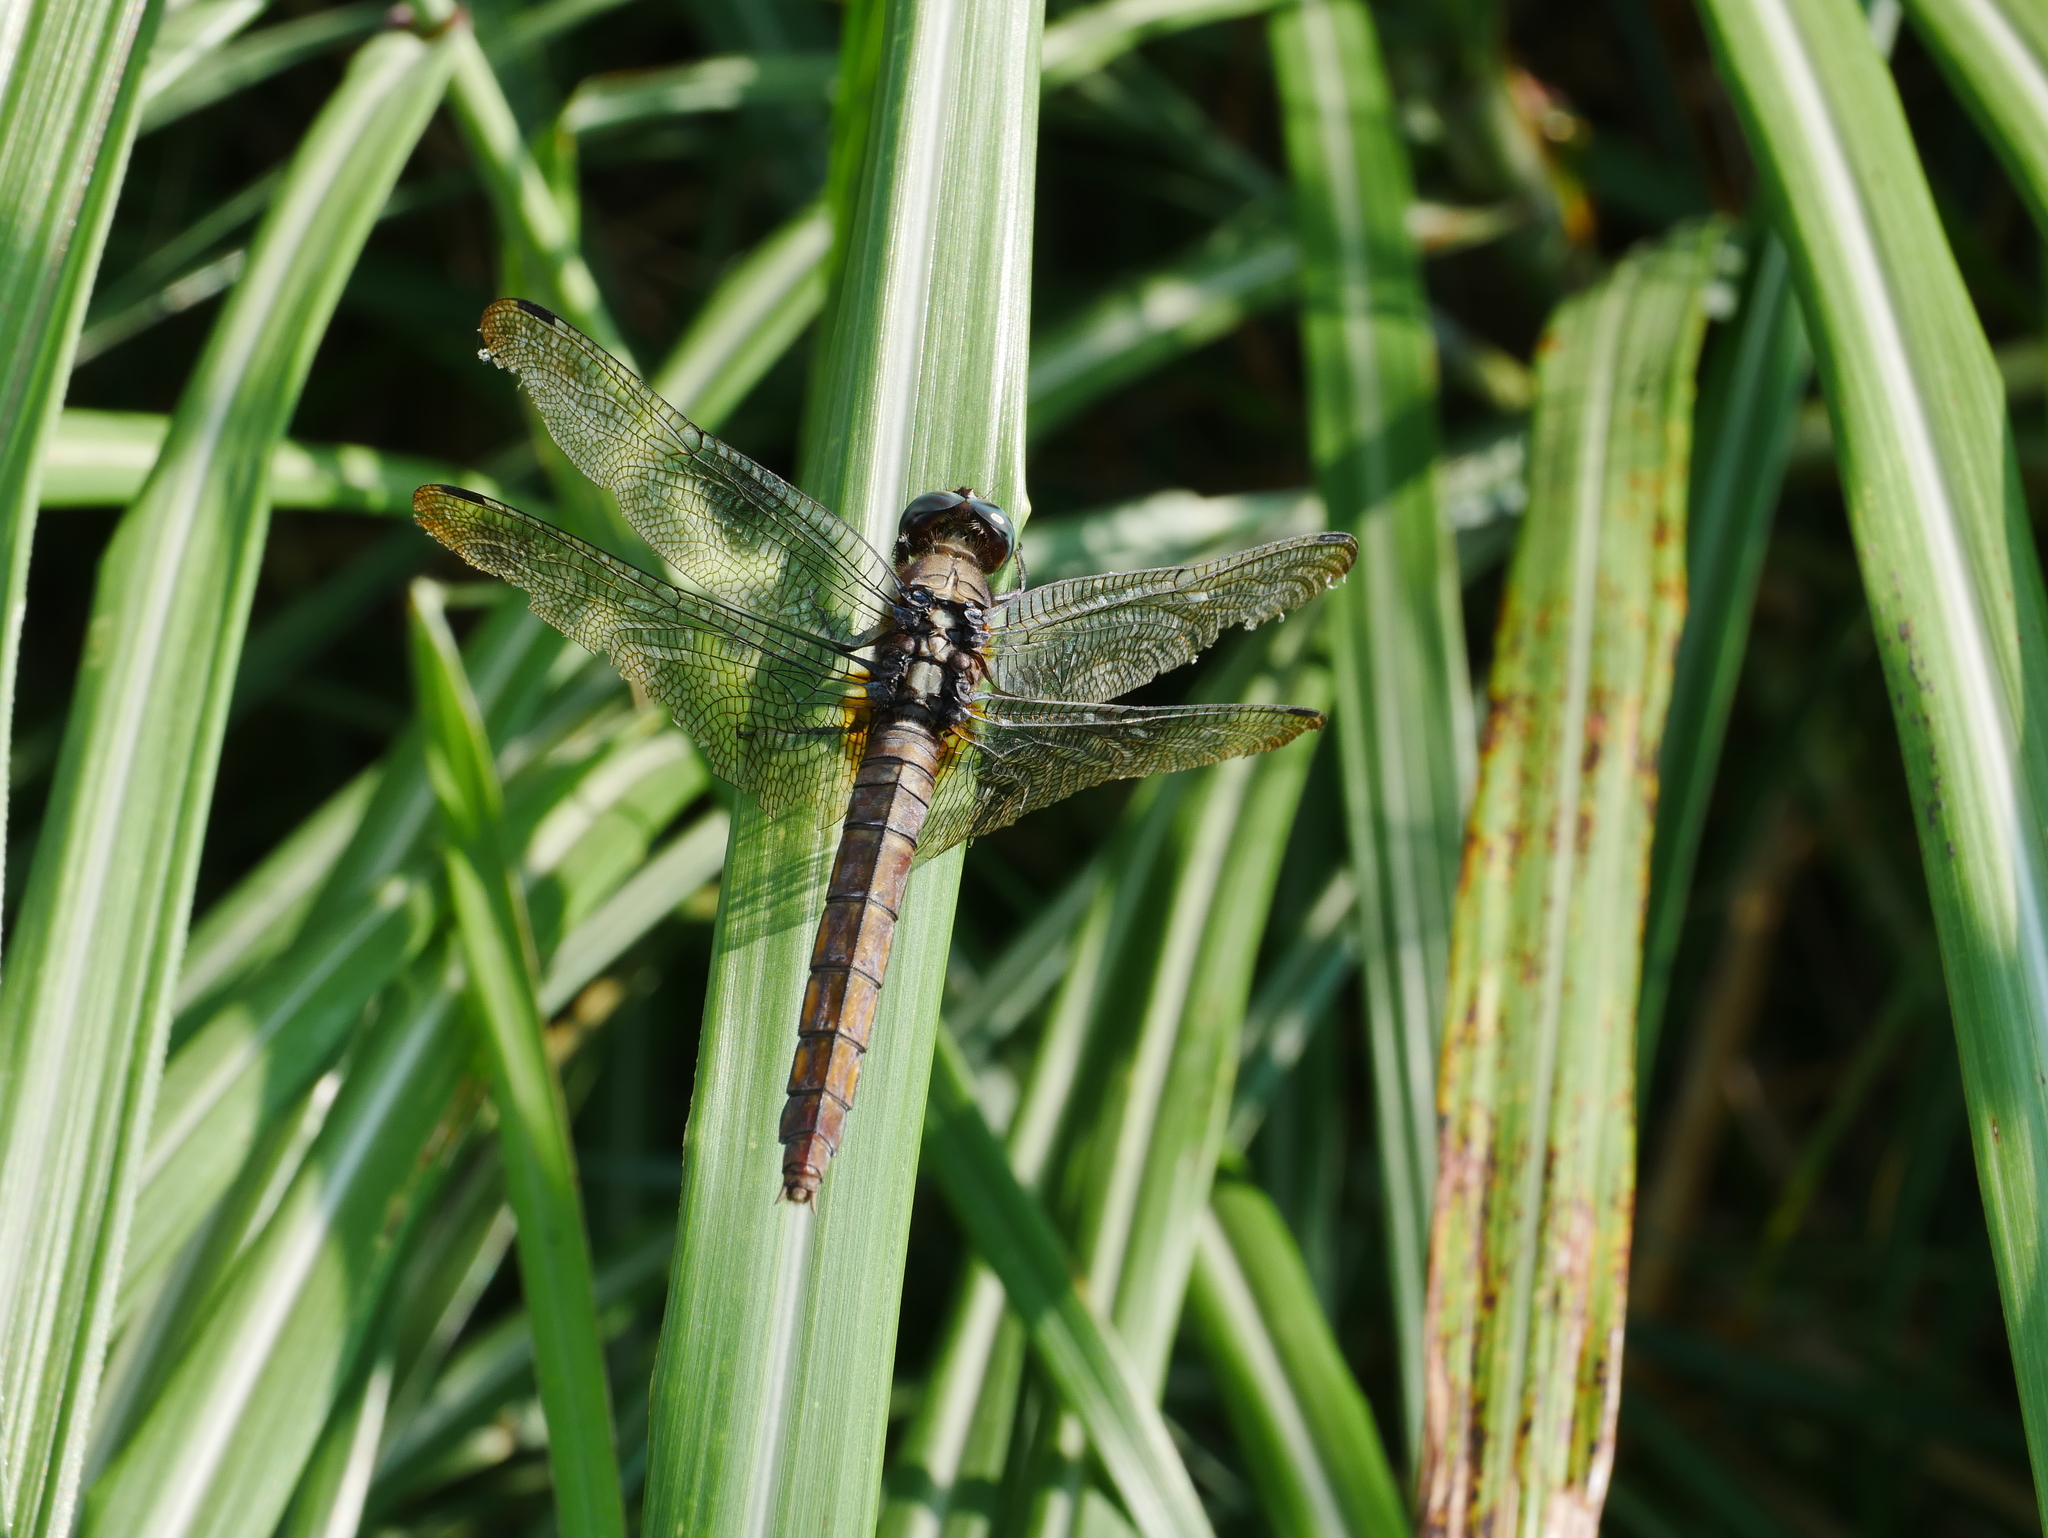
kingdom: Animalia
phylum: Arthropoda
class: Insecta
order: Odonata
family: Libellulidae
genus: Orthetrum
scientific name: Orthetrum triangulare
